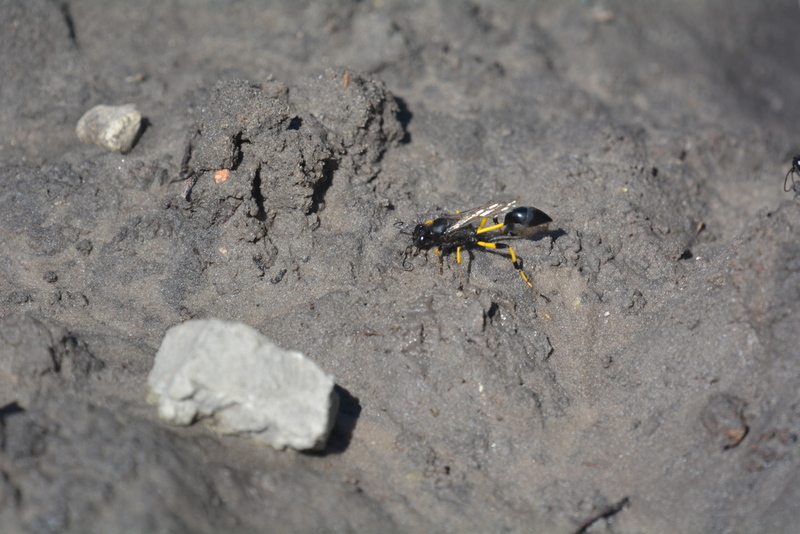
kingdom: Animalia
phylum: Arthropoda
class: Insecta
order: Hymenoptera
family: Sphecidae
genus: Sceliphron
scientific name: Sceliphron spirifex
